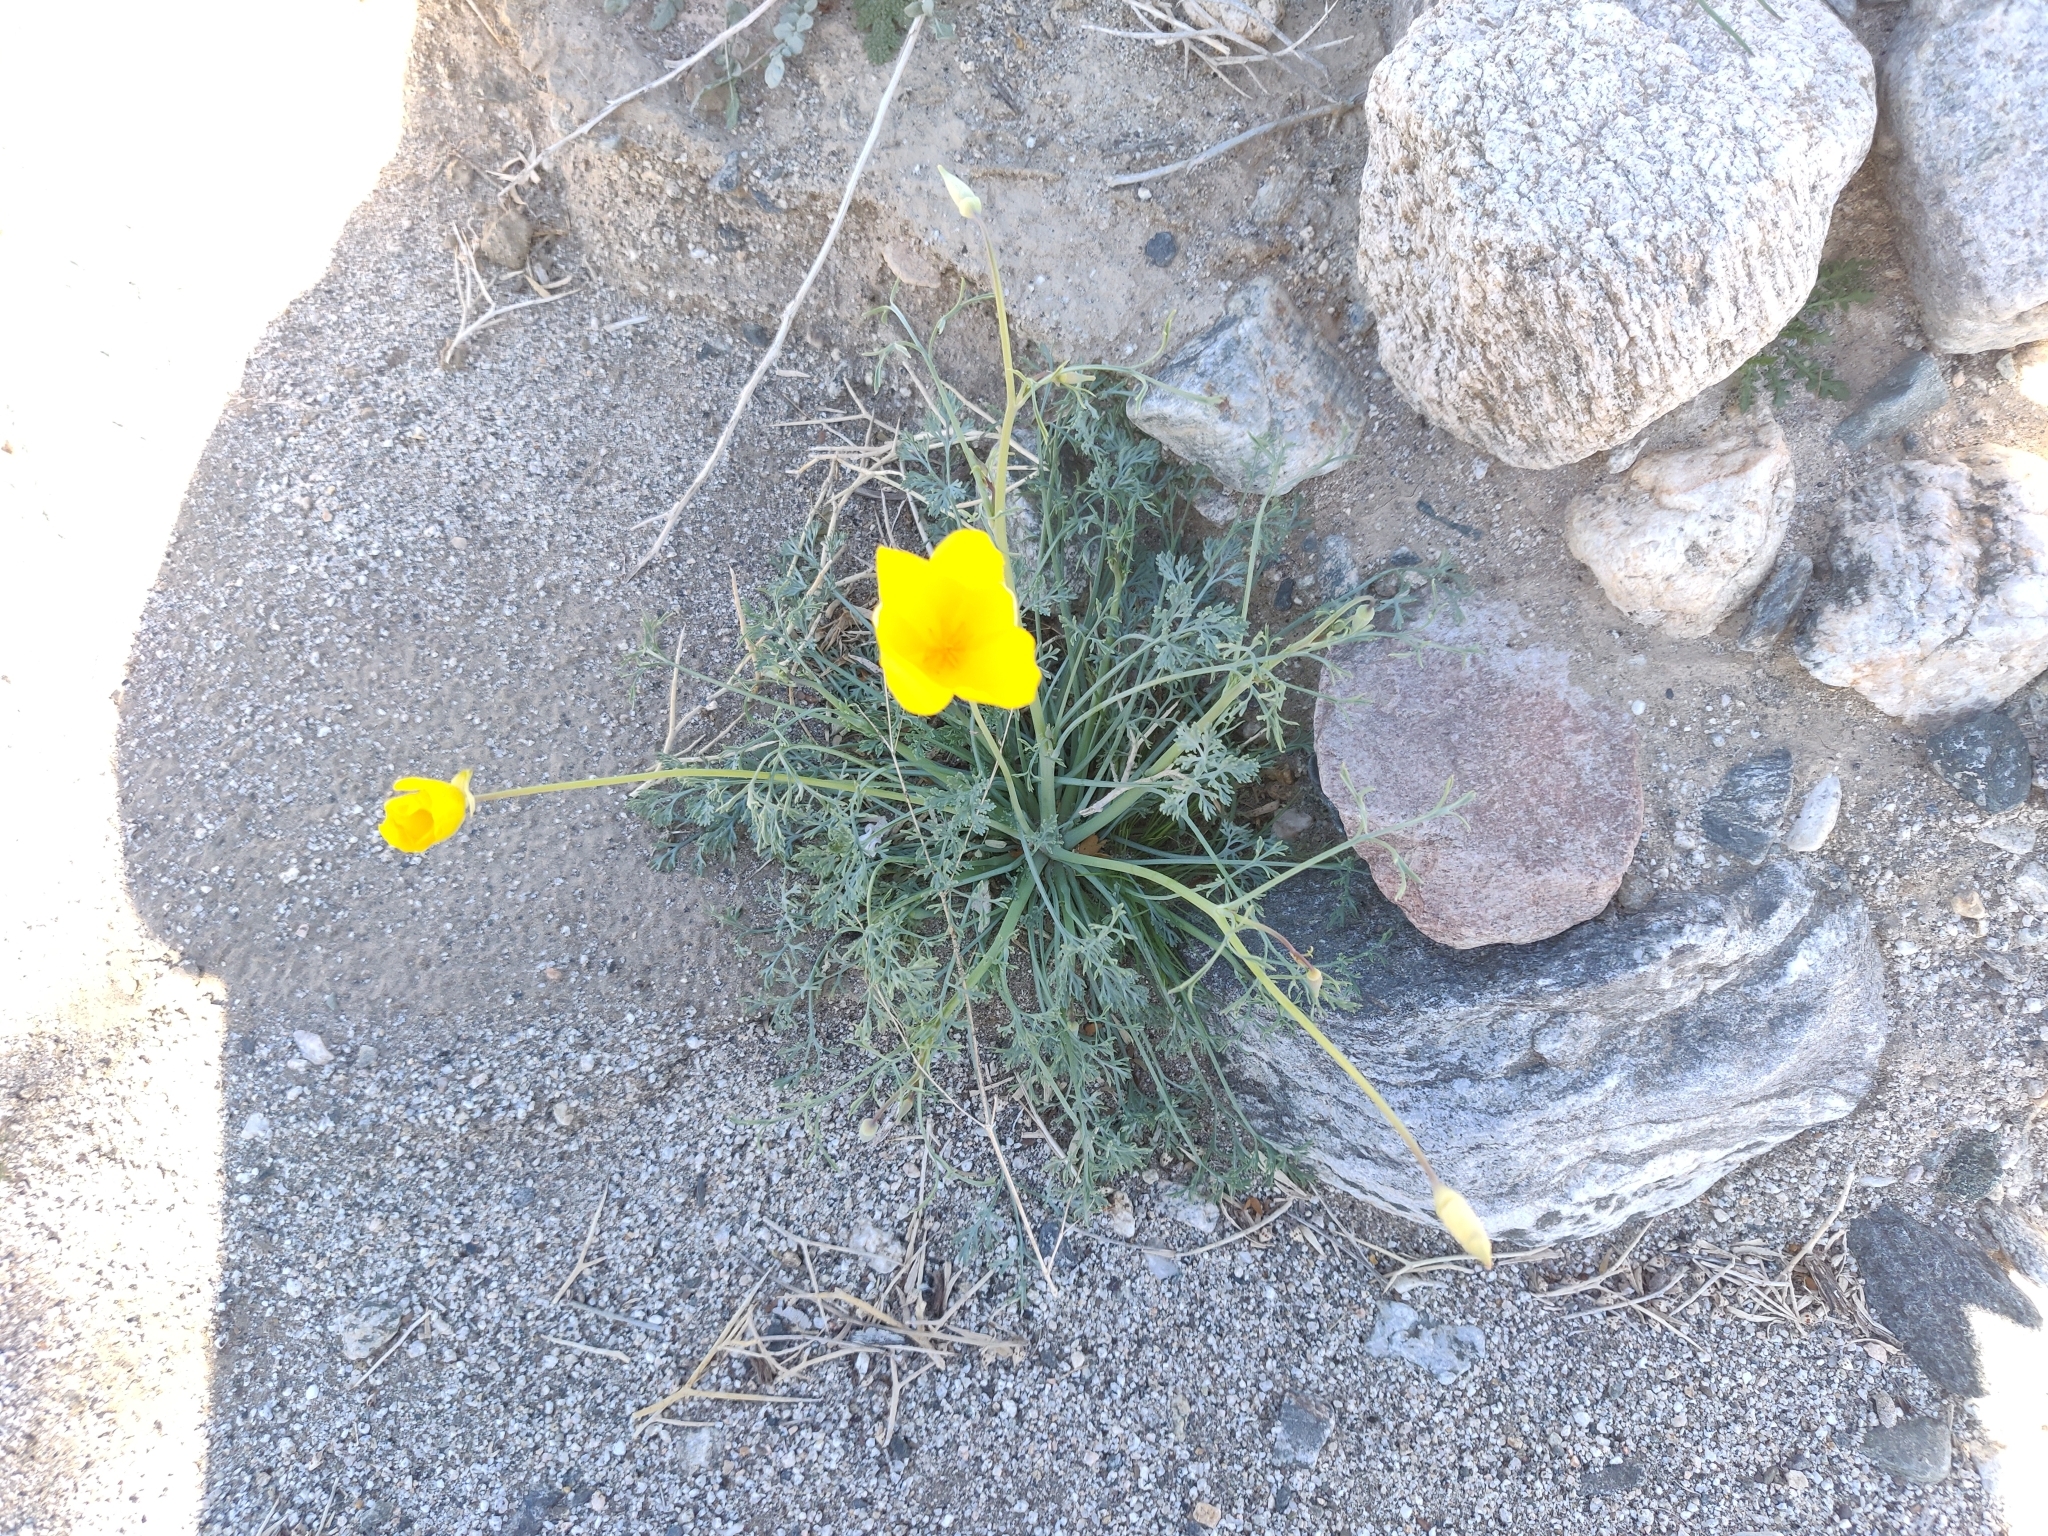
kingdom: Plantae
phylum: Tracheophyta
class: Magnoliopsida
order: Ranunculales
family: Papaveraceae
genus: Eschscholzia
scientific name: Eschscholzia papastillii
